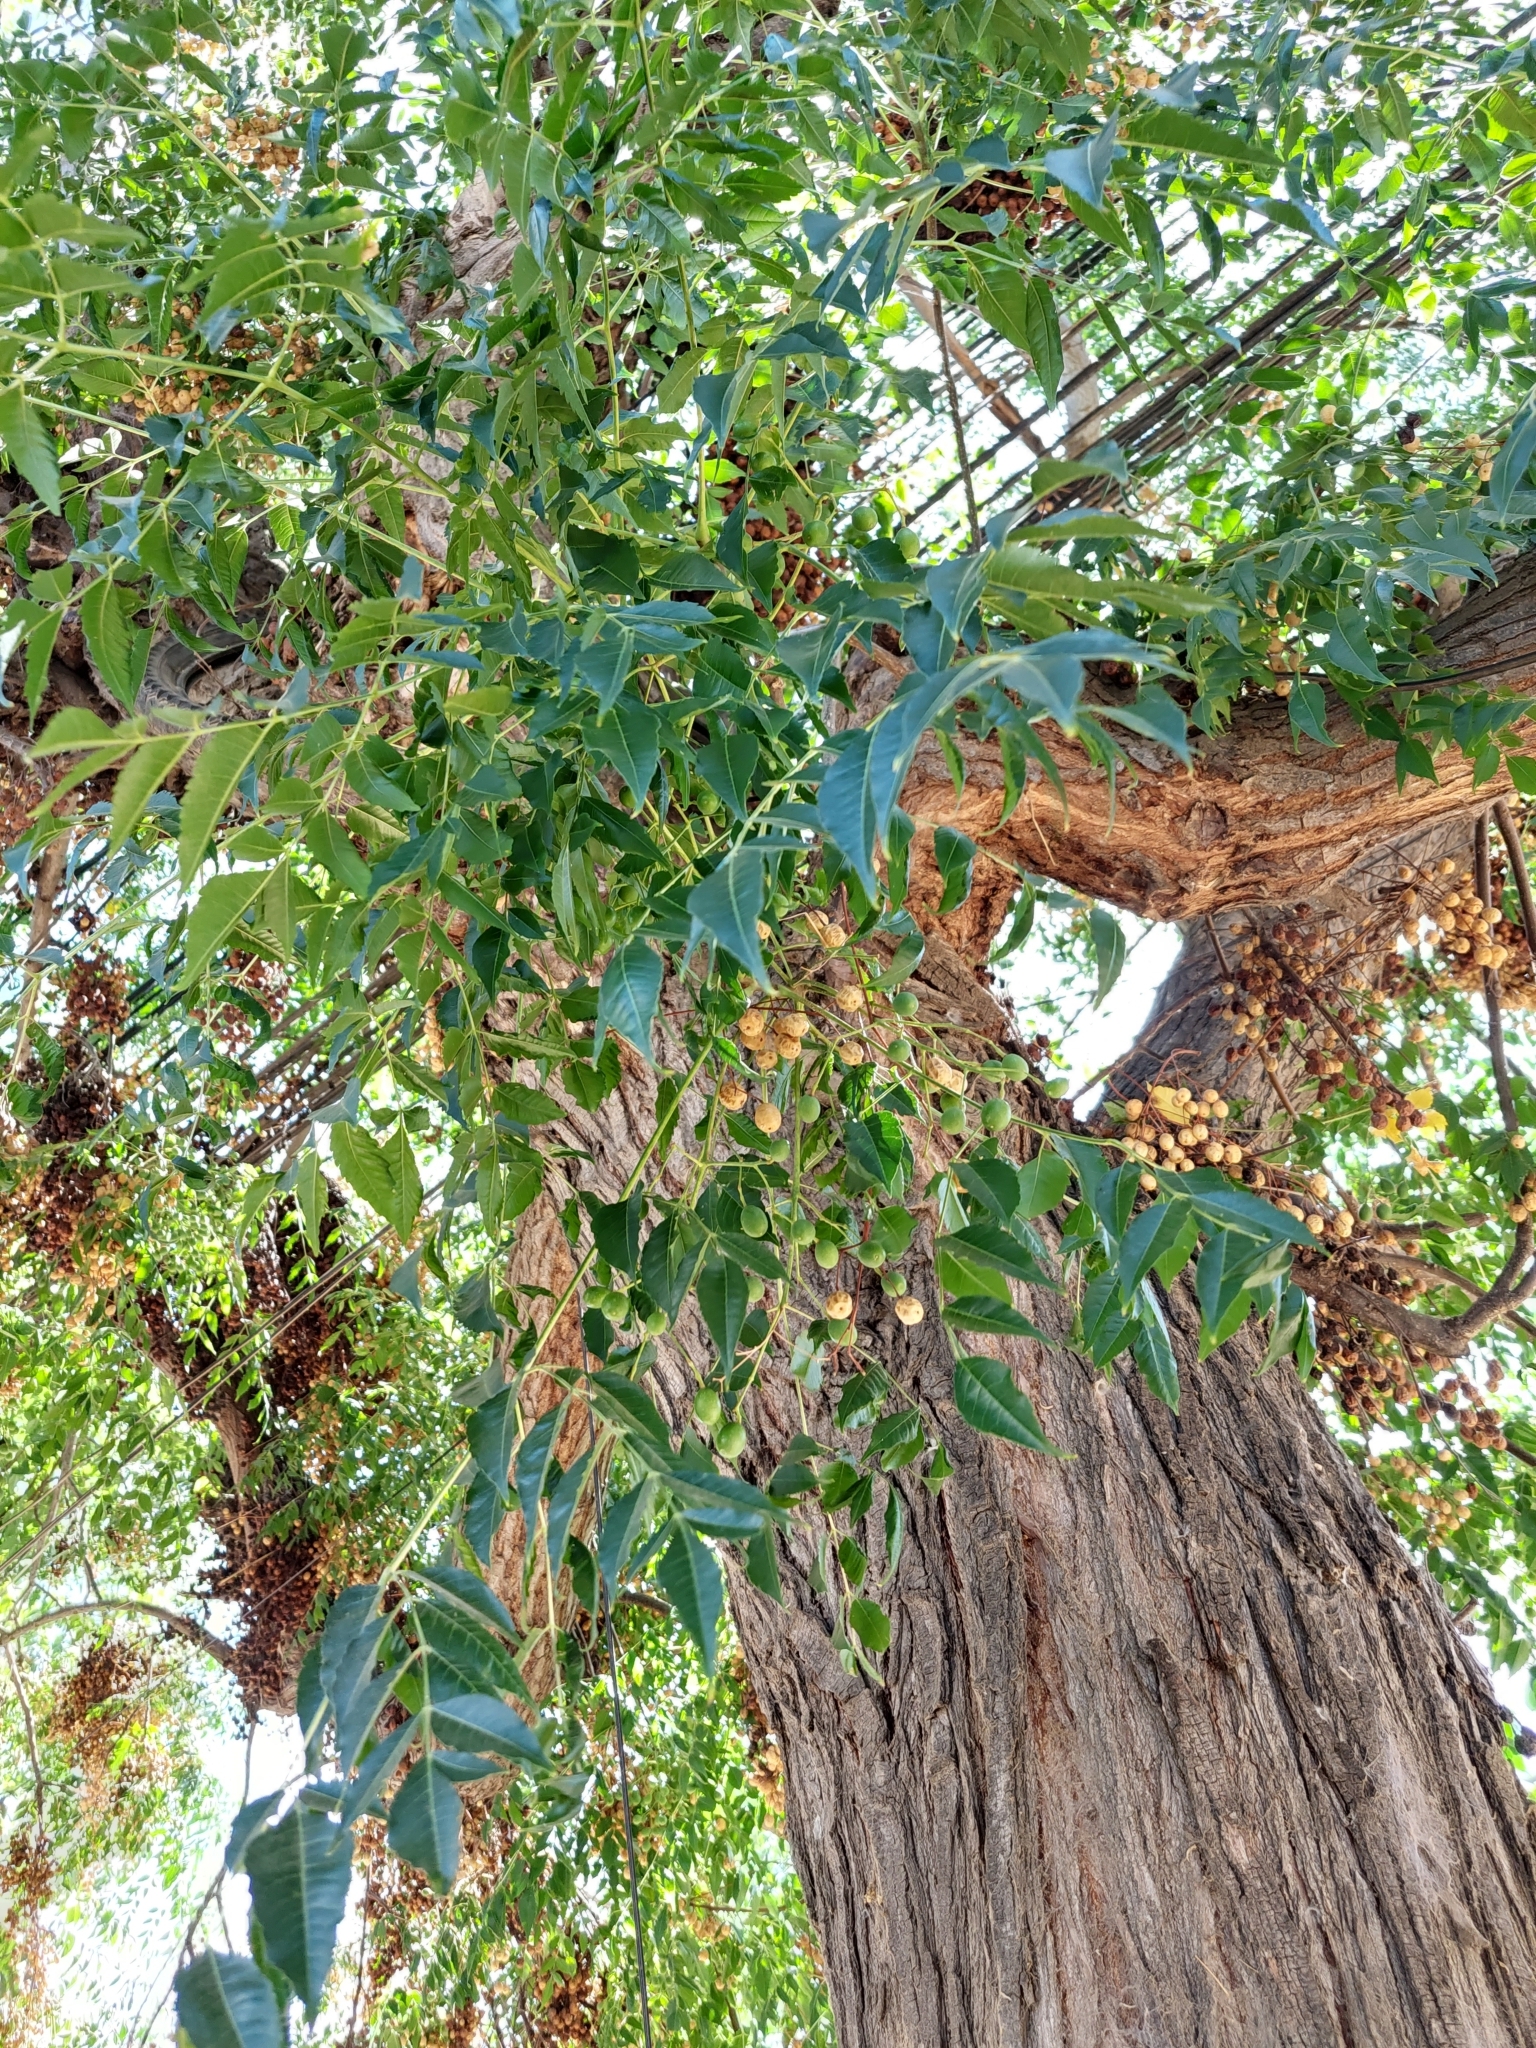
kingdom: Plantae
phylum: Tracheophyta
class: Magnoliopsida
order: Sapindales
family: Meliaceae
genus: Melia
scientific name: Melia azedarach
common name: Chinaberrytree
